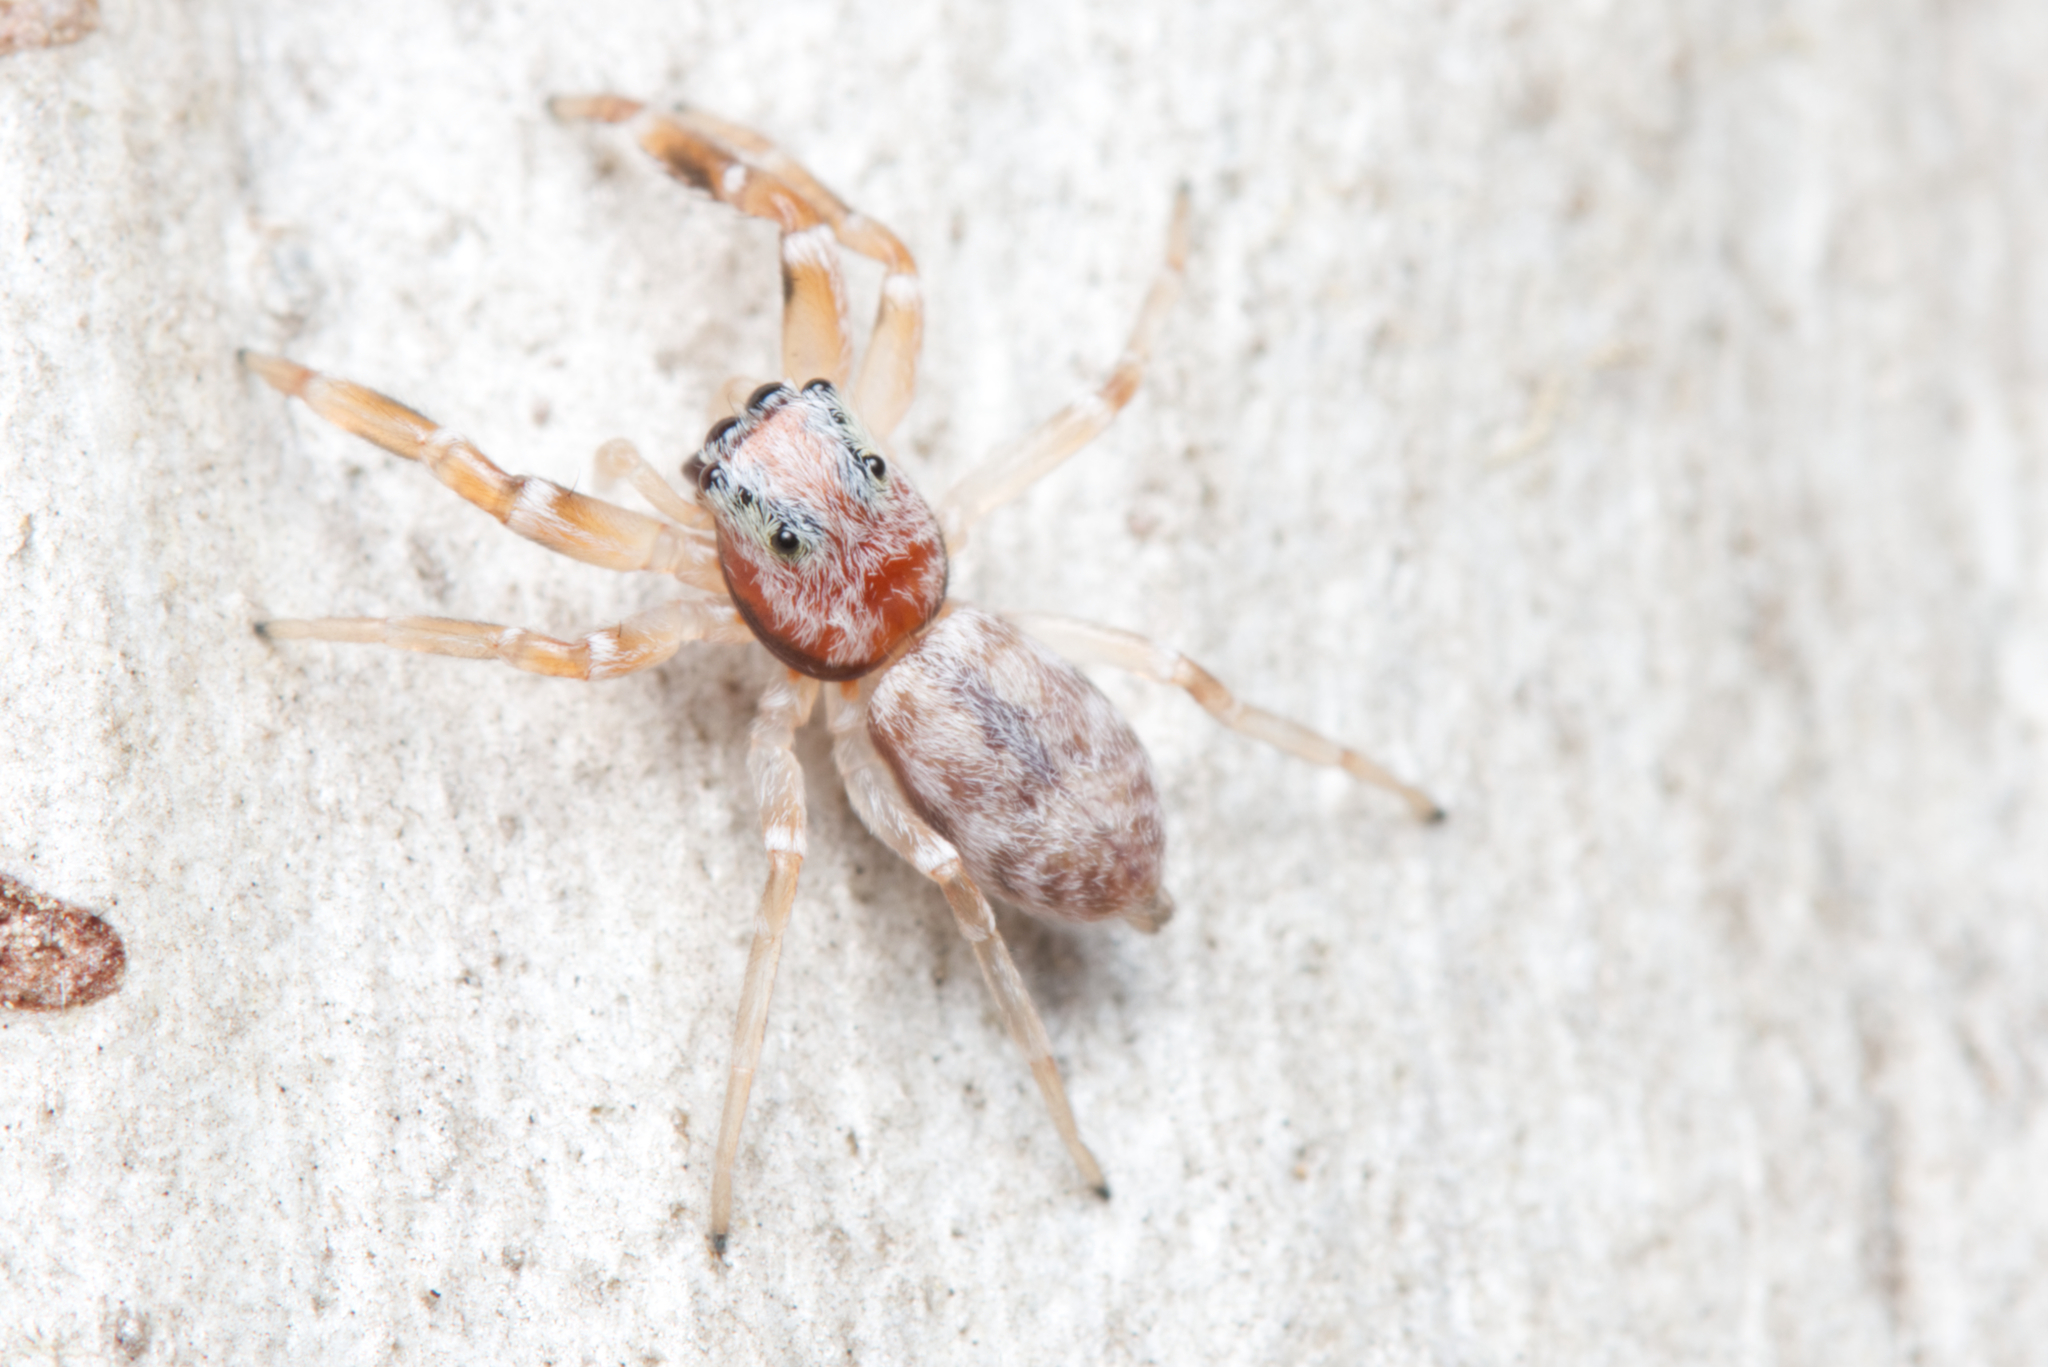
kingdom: Animalia
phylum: Arthropoda
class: Arachnida
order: Araneae
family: Salticidae
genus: Arasia
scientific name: Arasia mollicoma
